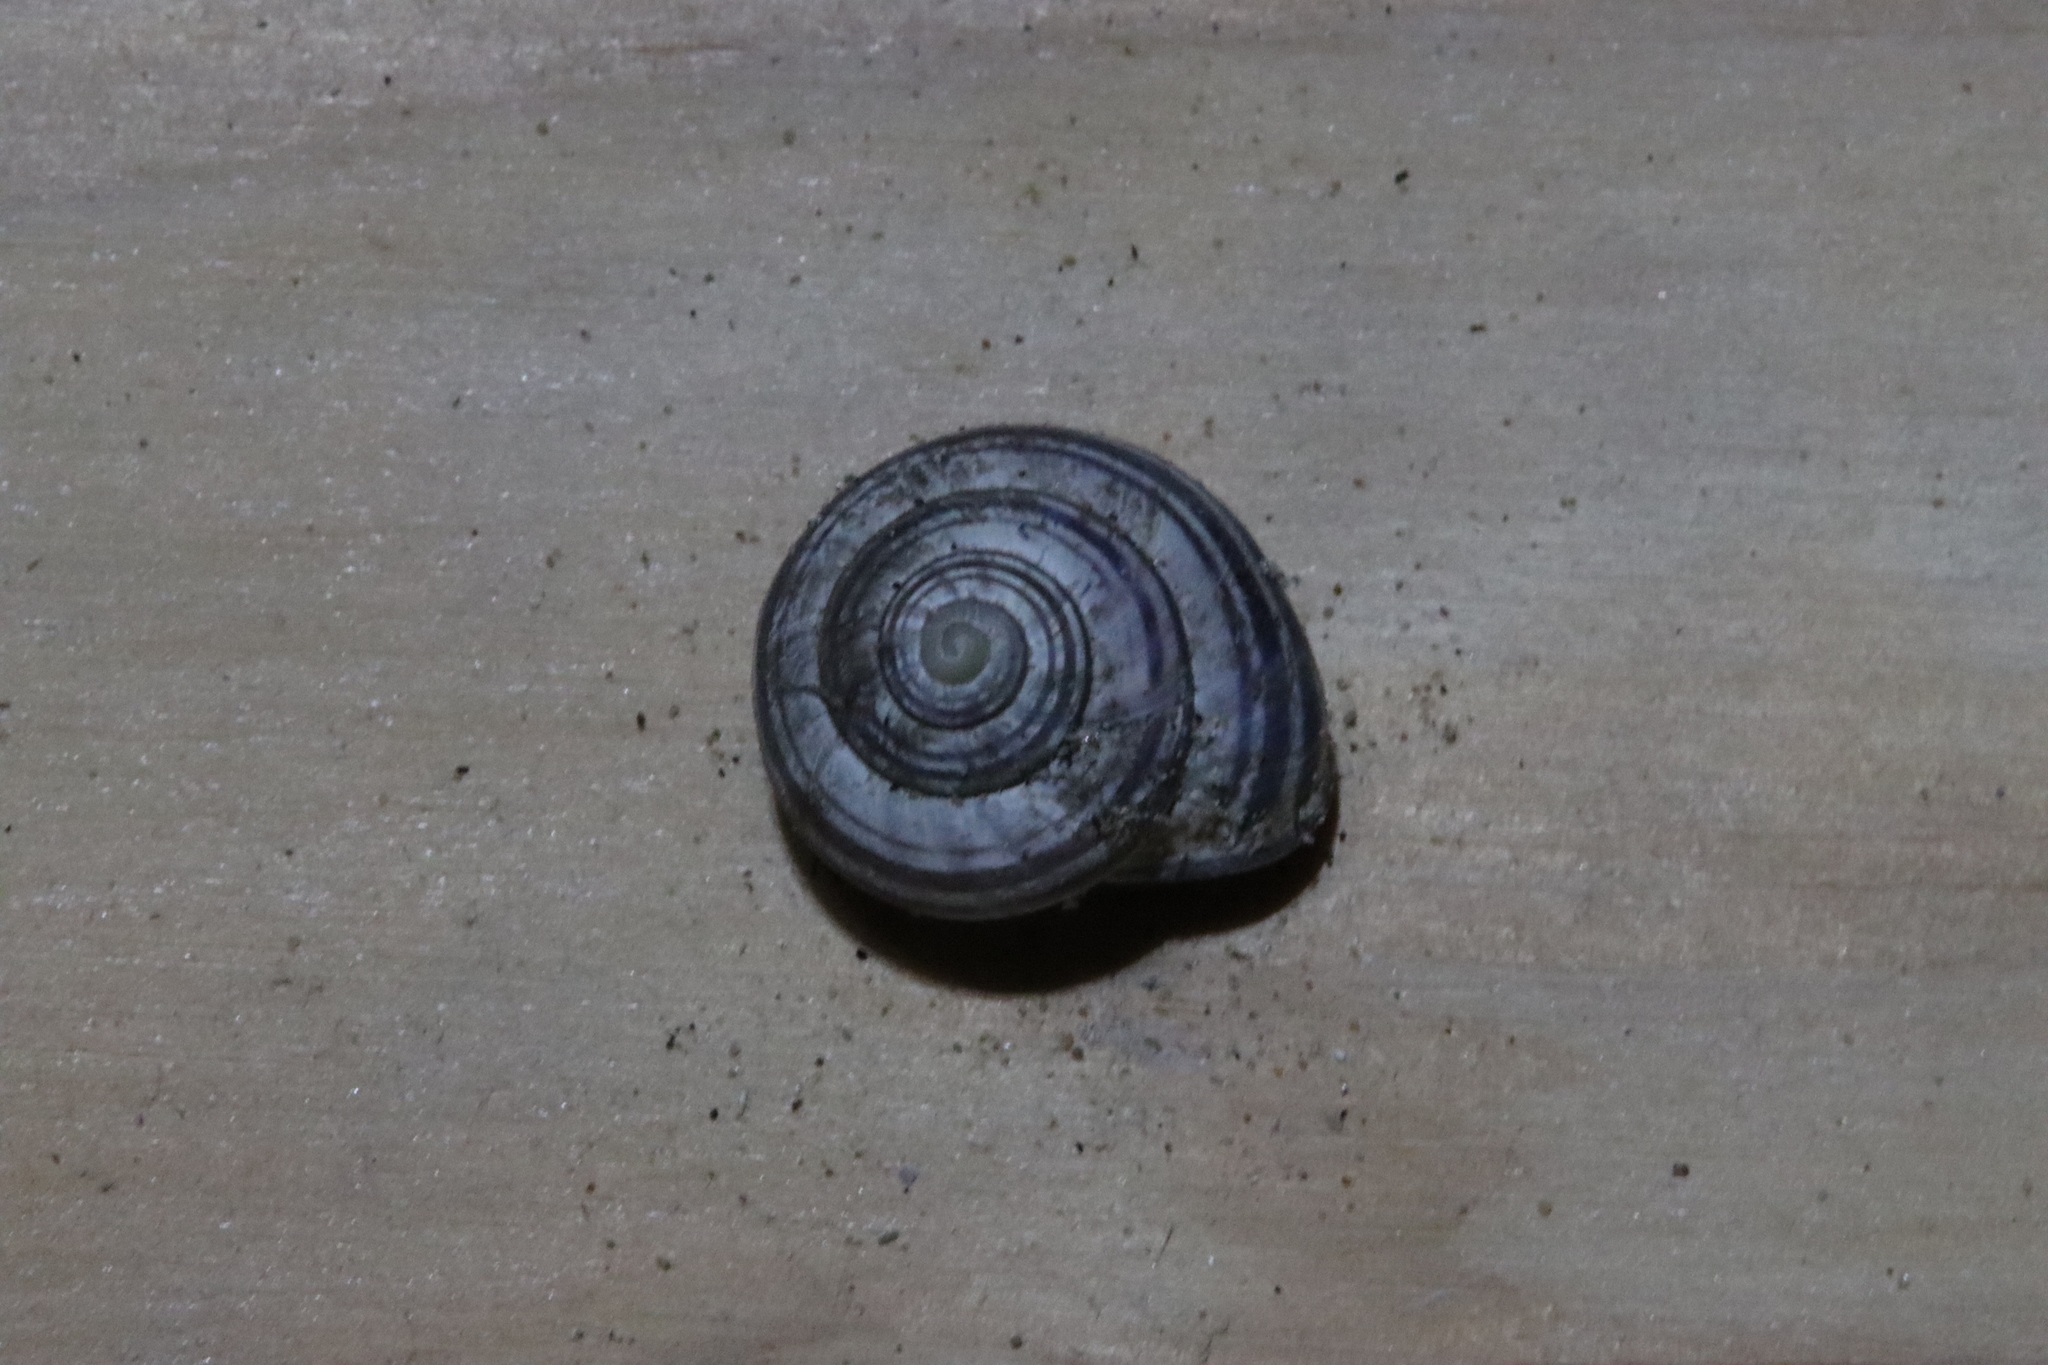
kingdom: Animalia
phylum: Mollusca
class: Gastropoda
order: Stylommatophora
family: Helicidae
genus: Cepaea
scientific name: Cepaea nemoralis
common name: Grovesnail
